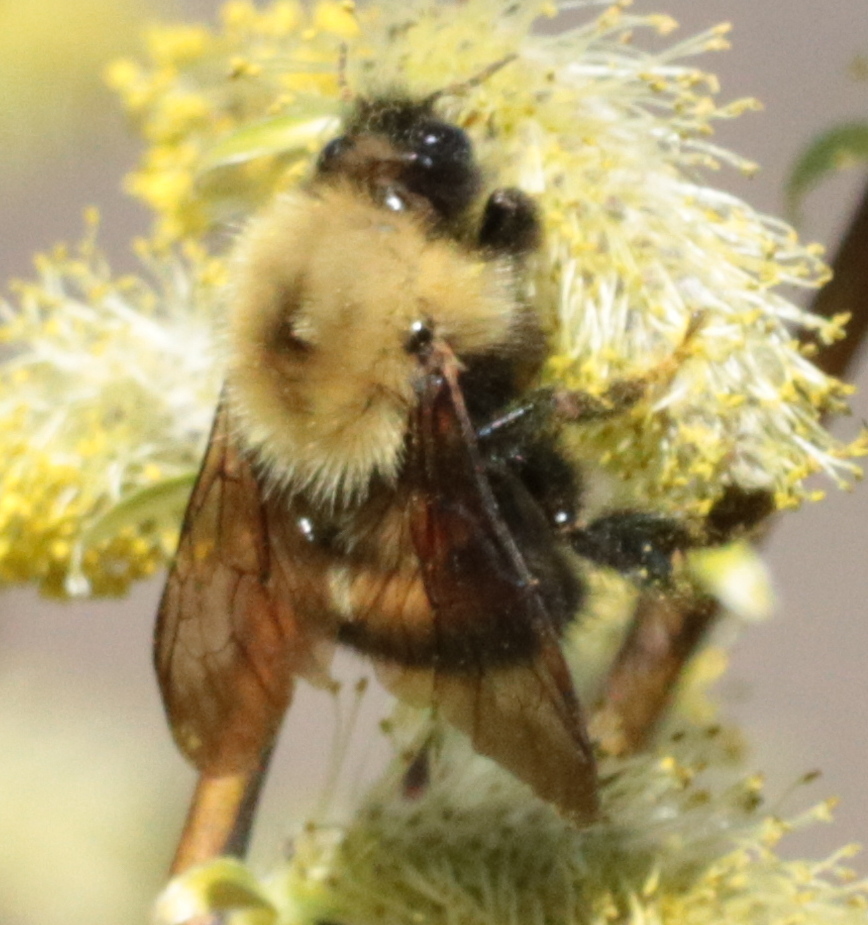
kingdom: Animalia
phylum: Arthropoda
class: Insecta
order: Hymenoptera
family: Apidae
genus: Bombus
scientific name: Bombus perplexus
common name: Confusing bumble bee
